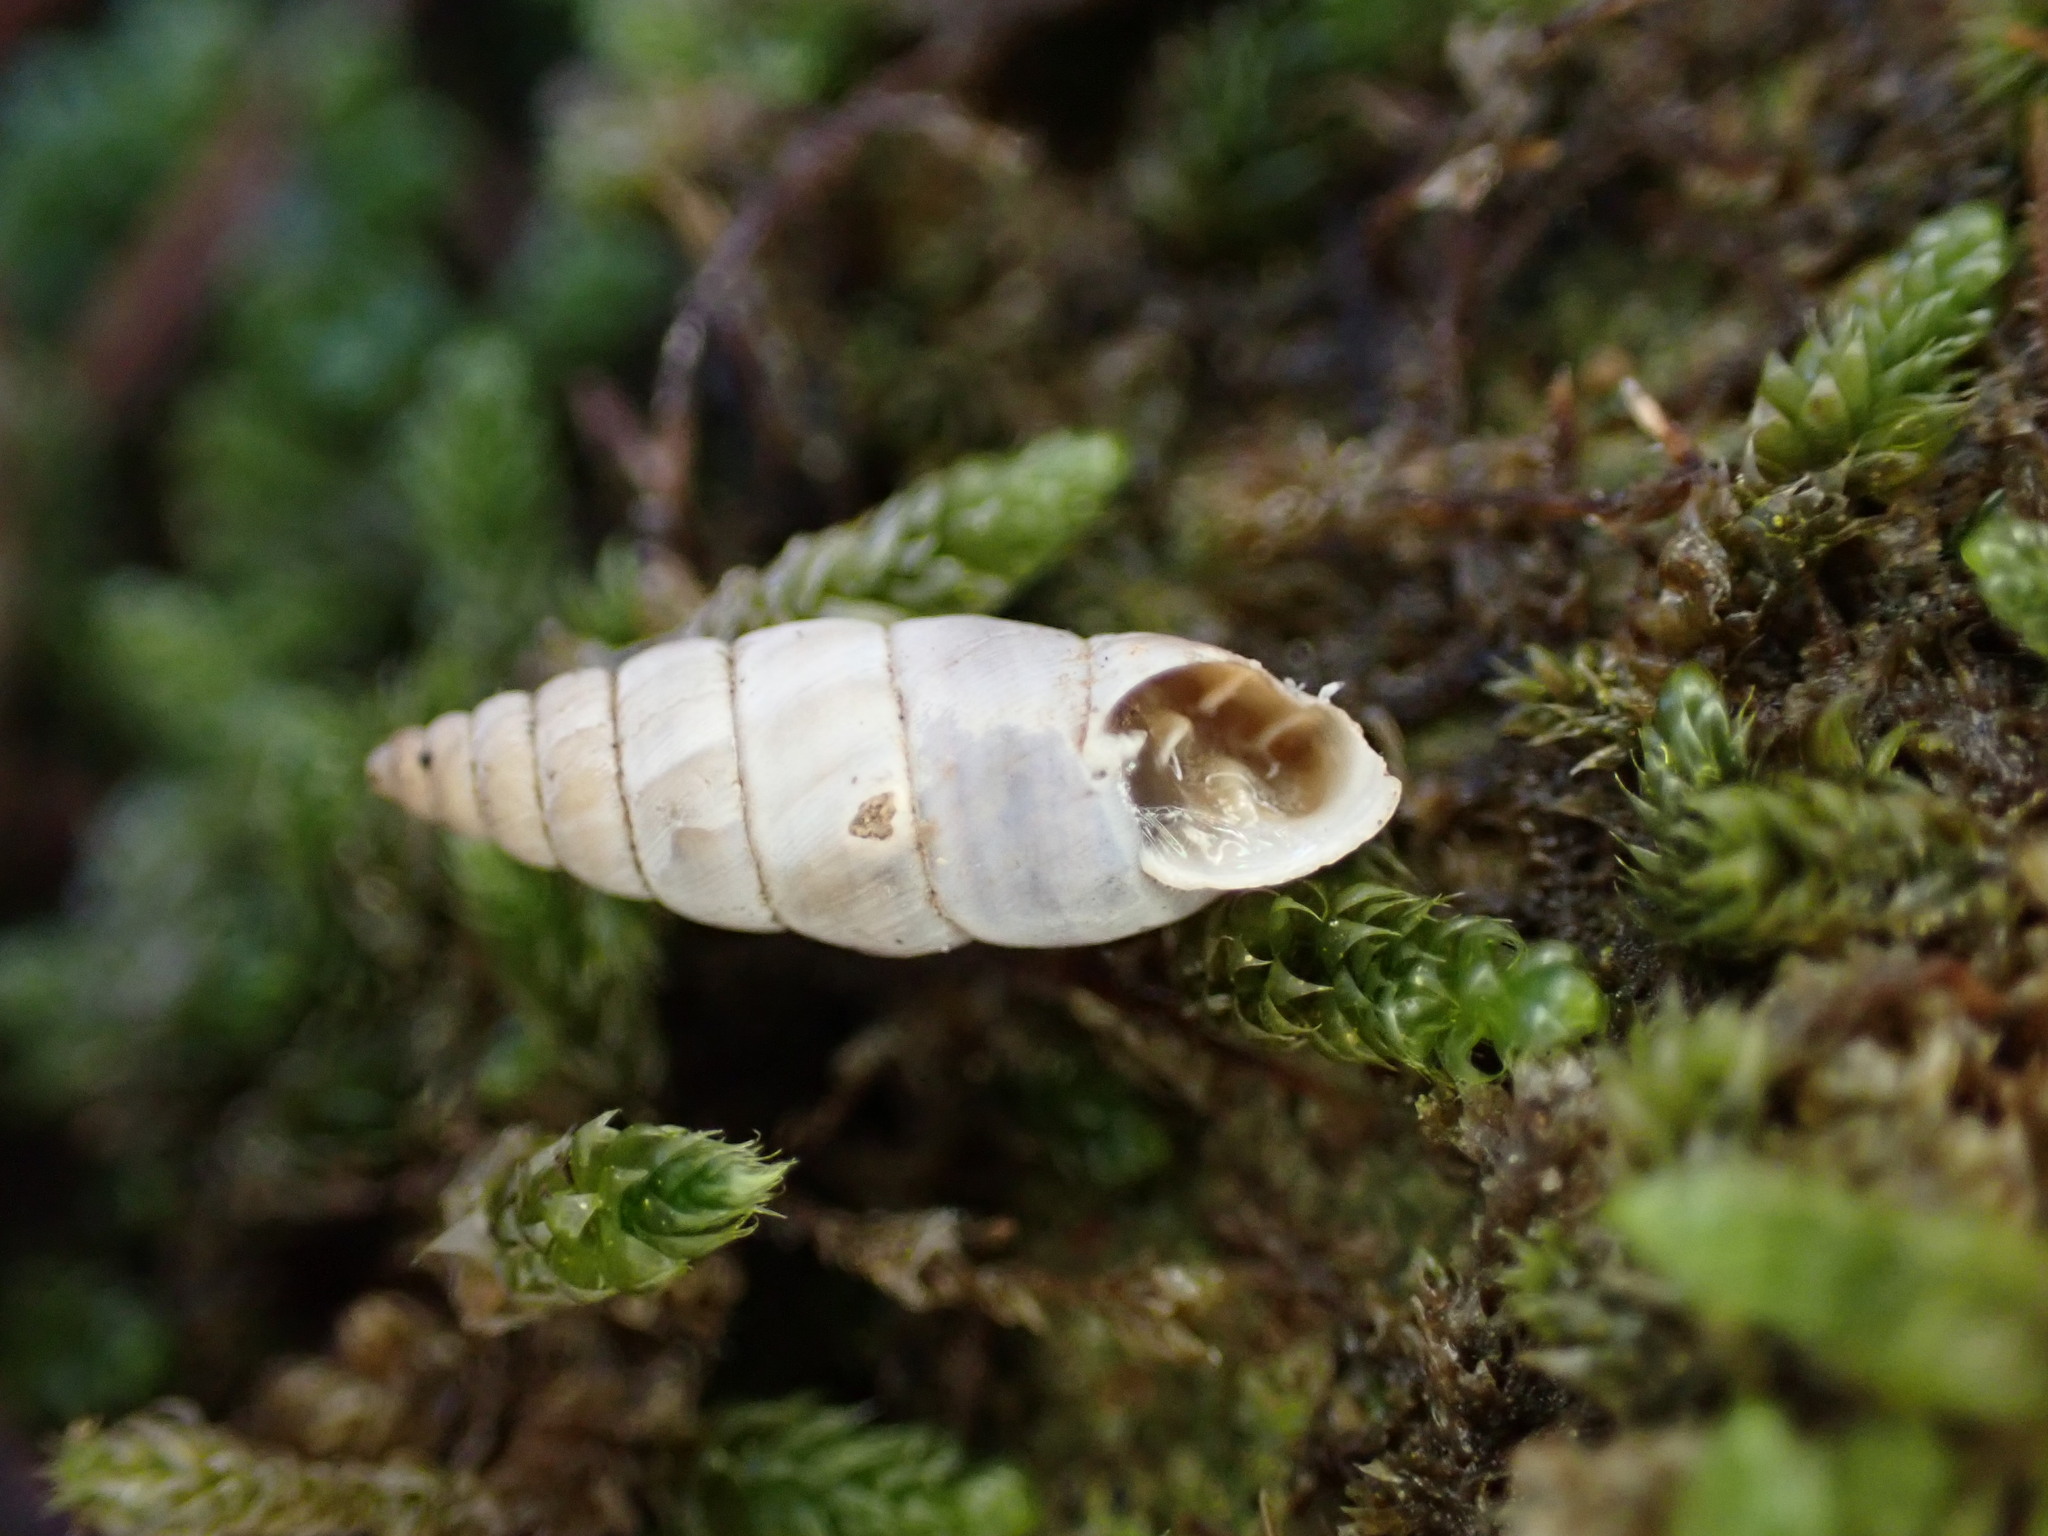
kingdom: Animalia
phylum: Mollusca
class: Gastropoda
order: Stylommatophora
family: Chondrinidae
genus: Solatopupa
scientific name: Solatopupa similis
